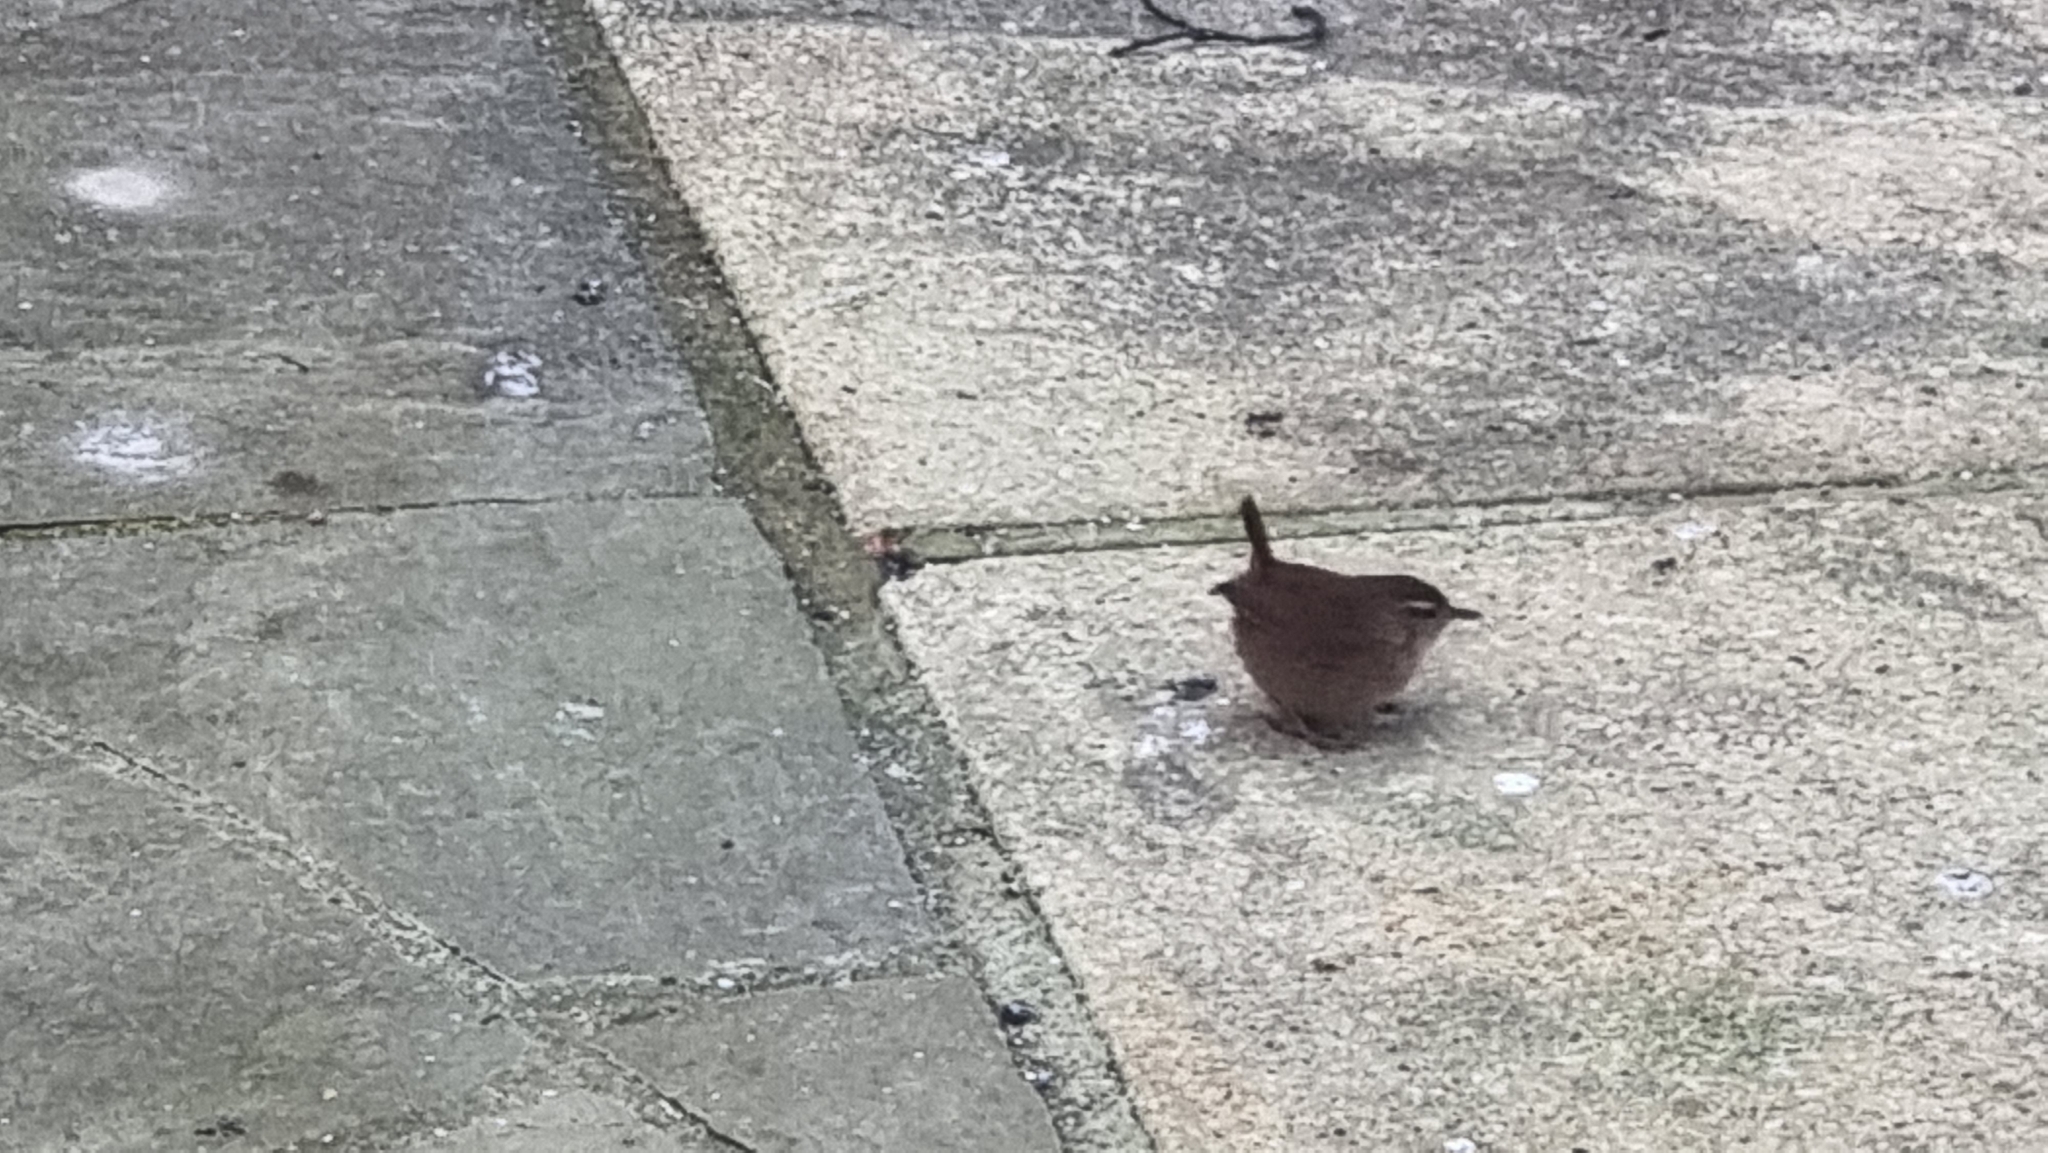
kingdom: Animalia
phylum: Chordata
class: Aves
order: Passeriformes
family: Troglodytidae
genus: Troglodytes
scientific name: Troglodytes troglodytes
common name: Eurasian wren
